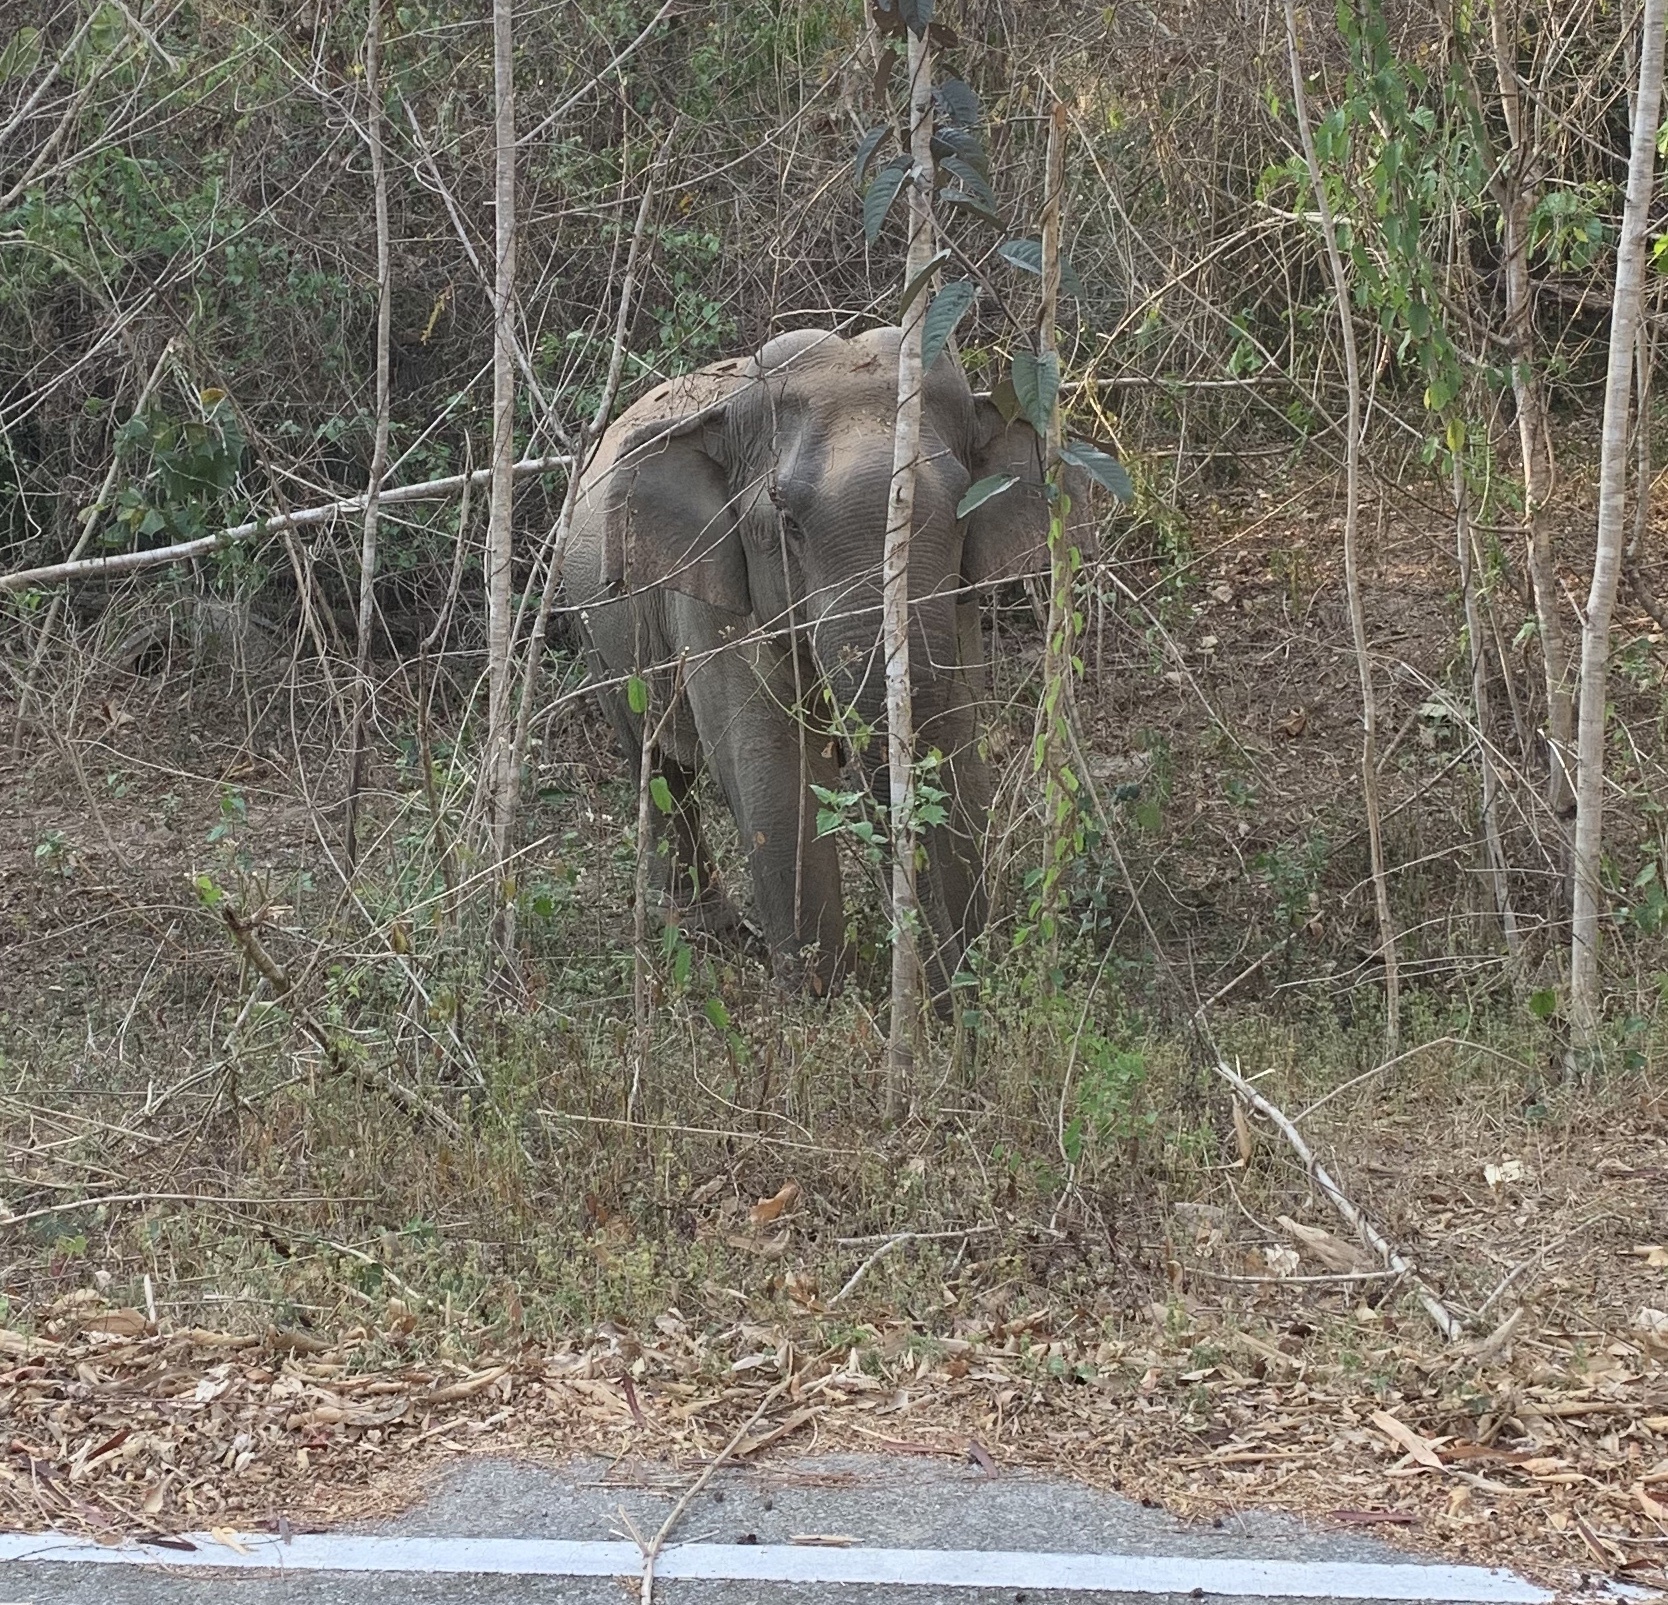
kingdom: Animalia
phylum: Chordata
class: Mammalia
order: Proboscidea
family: Elephantidae
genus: Elephas
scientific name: Elephas maximus
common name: Asian elephant
